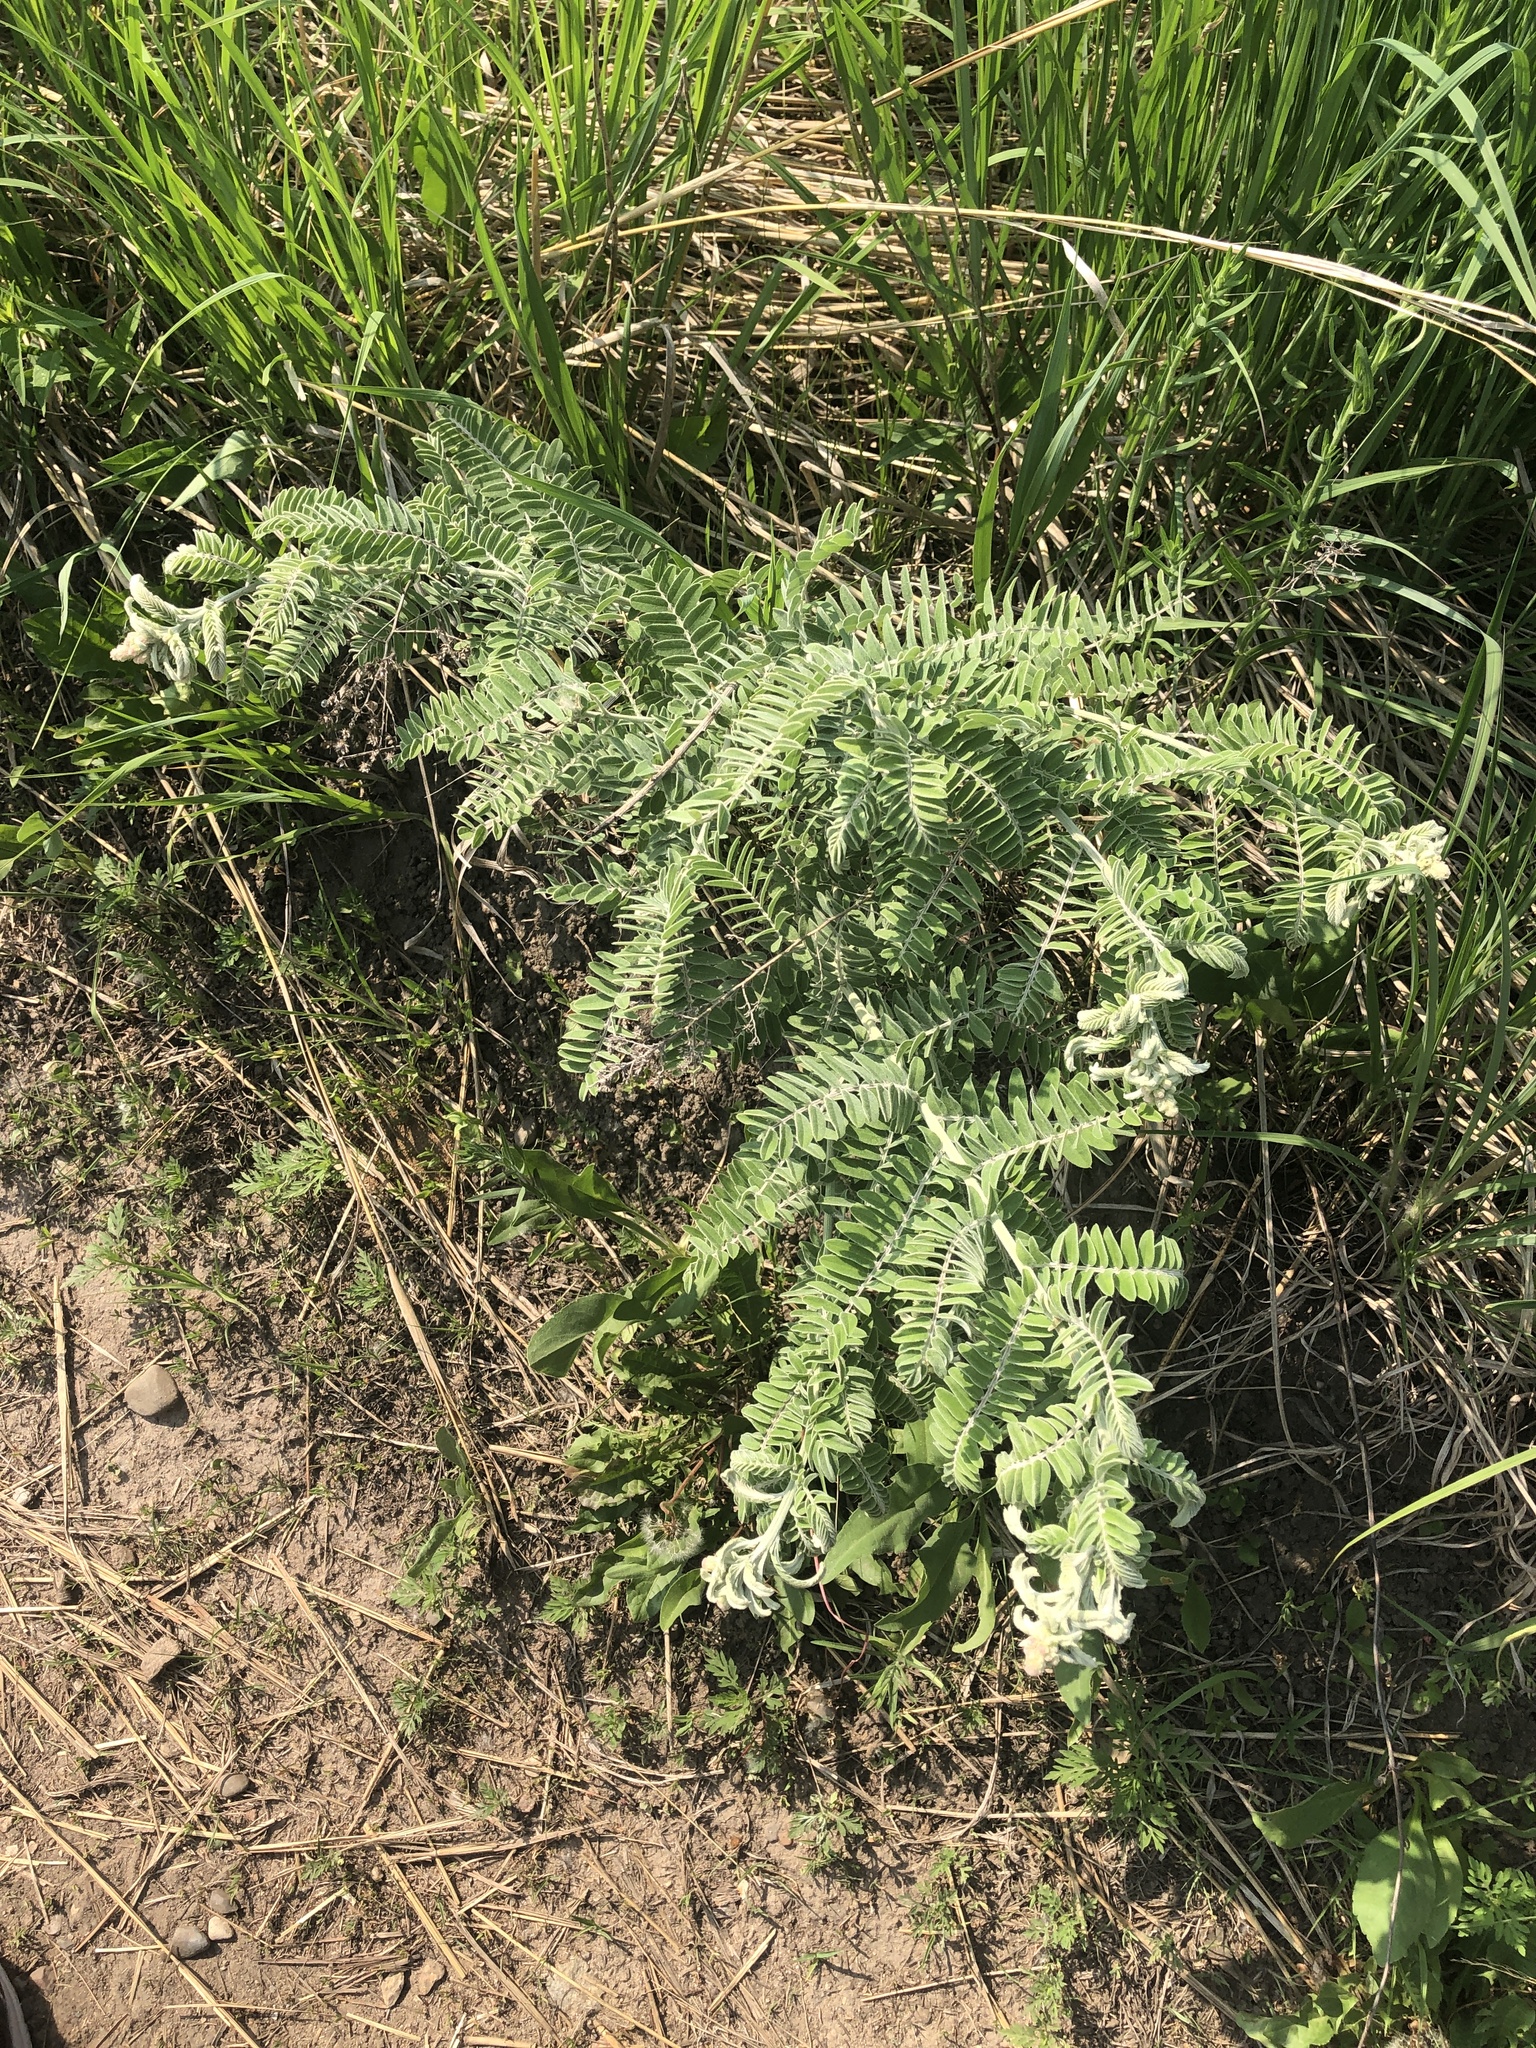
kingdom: Plantae
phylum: Tracheophyta
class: Magnoliopsida
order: Fabales
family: Fabaceae
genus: Amorpha
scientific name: Amorpha canescens
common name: Leadplant
